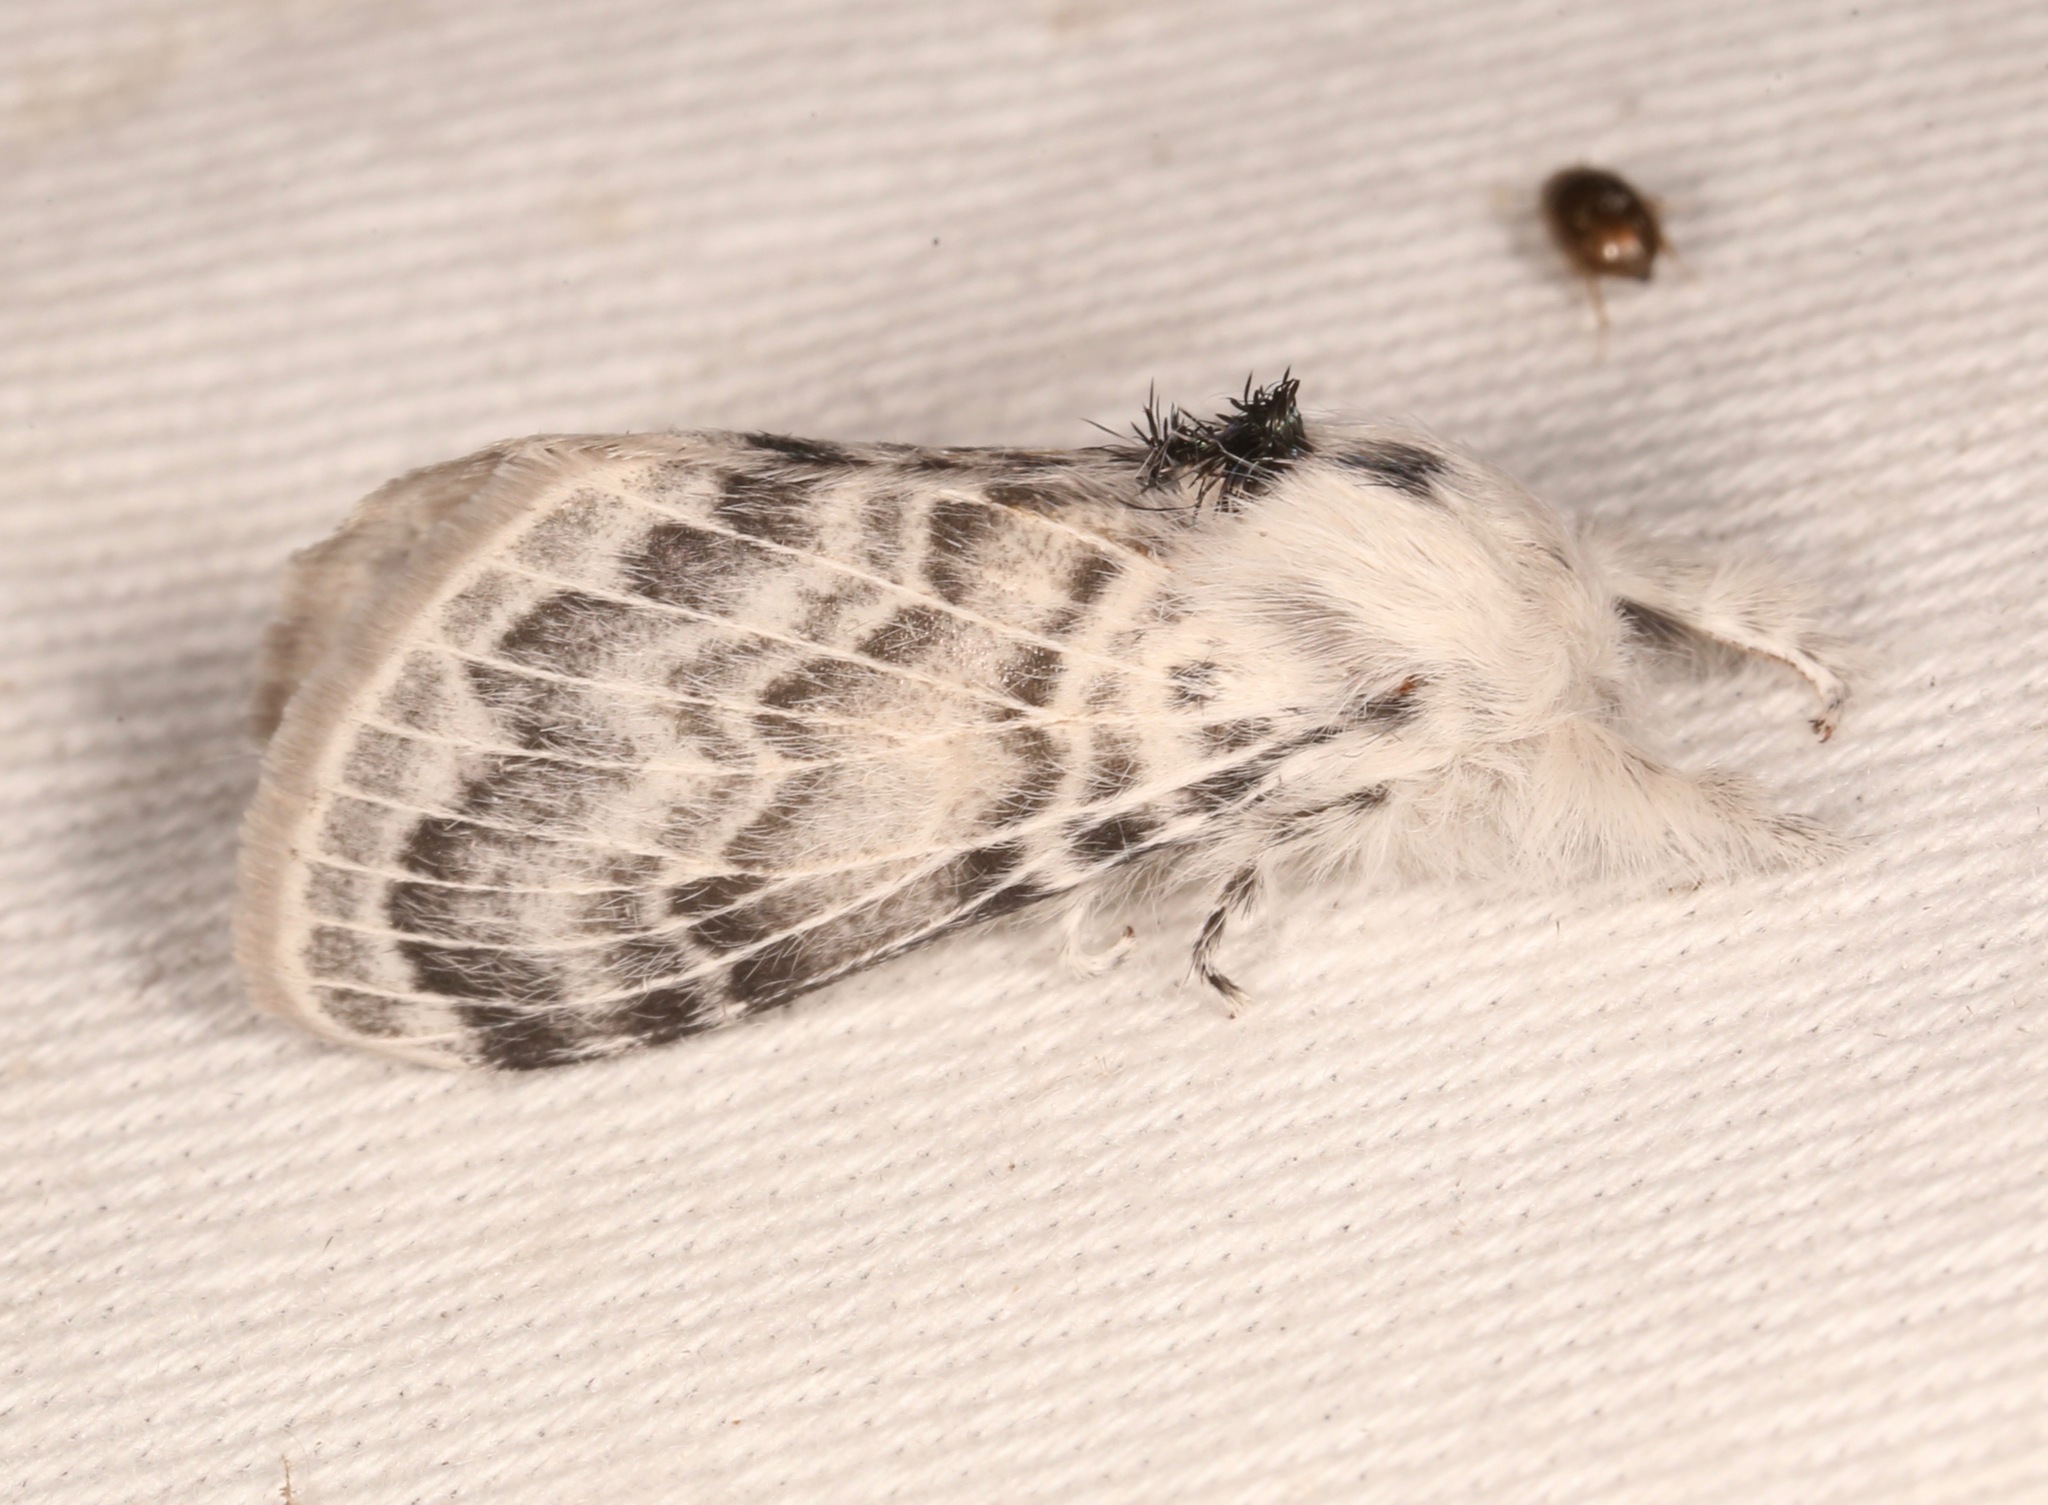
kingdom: Animalia
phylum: Arthropoda
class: Insecta
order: Lepidoptera
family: Lasiocampidae
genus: Apotolype
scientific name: Apotolype brevicrista
